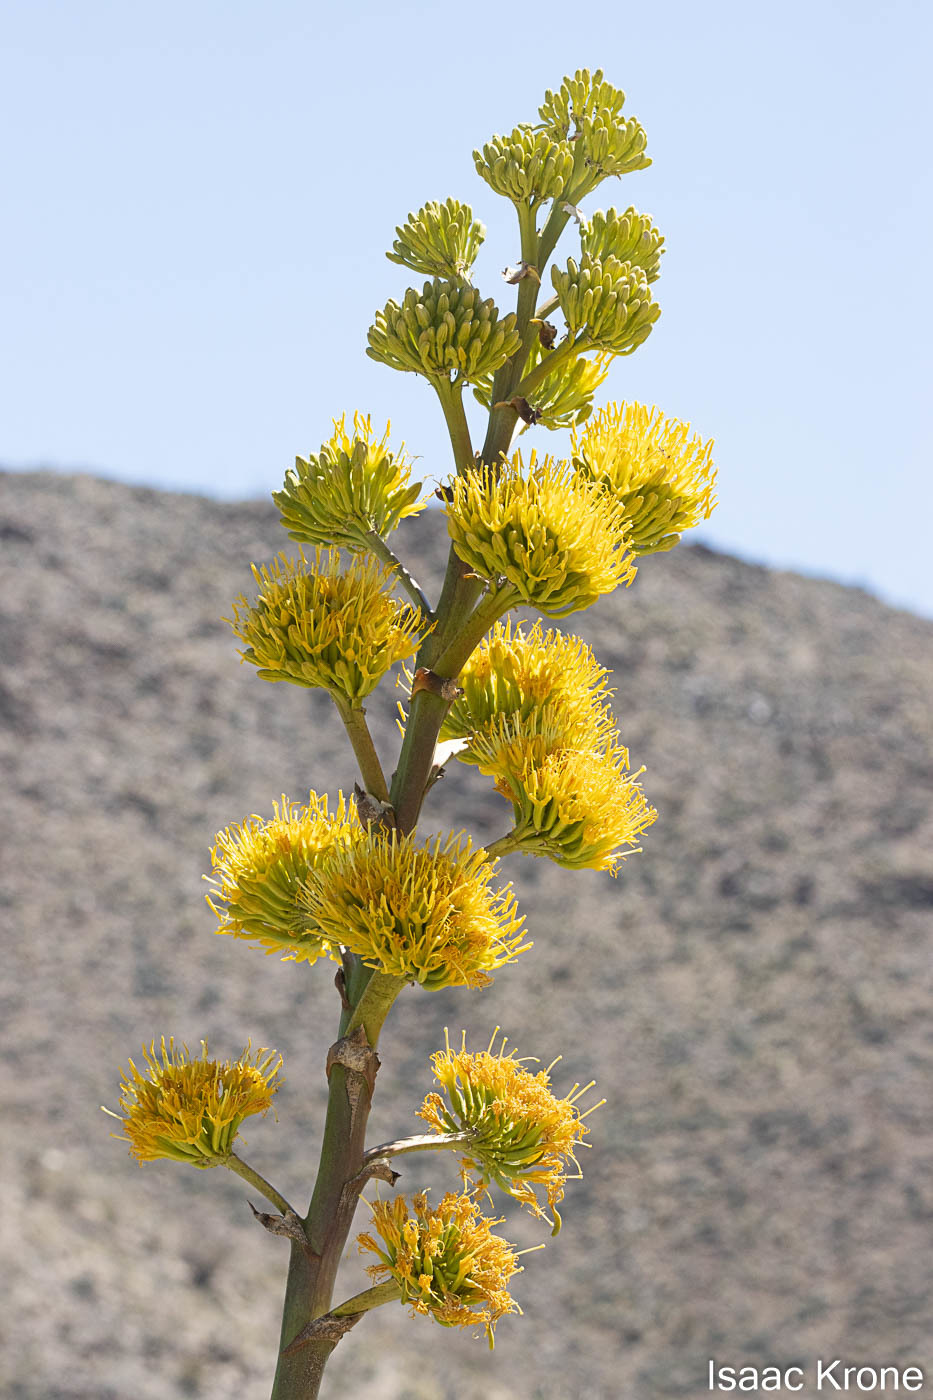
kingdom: Plantae
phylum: Tracheophyta
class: Liliopsida
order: Asparagales
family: Asparagaceae
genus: Agave
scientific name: Agave deserti
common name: Desert agave
